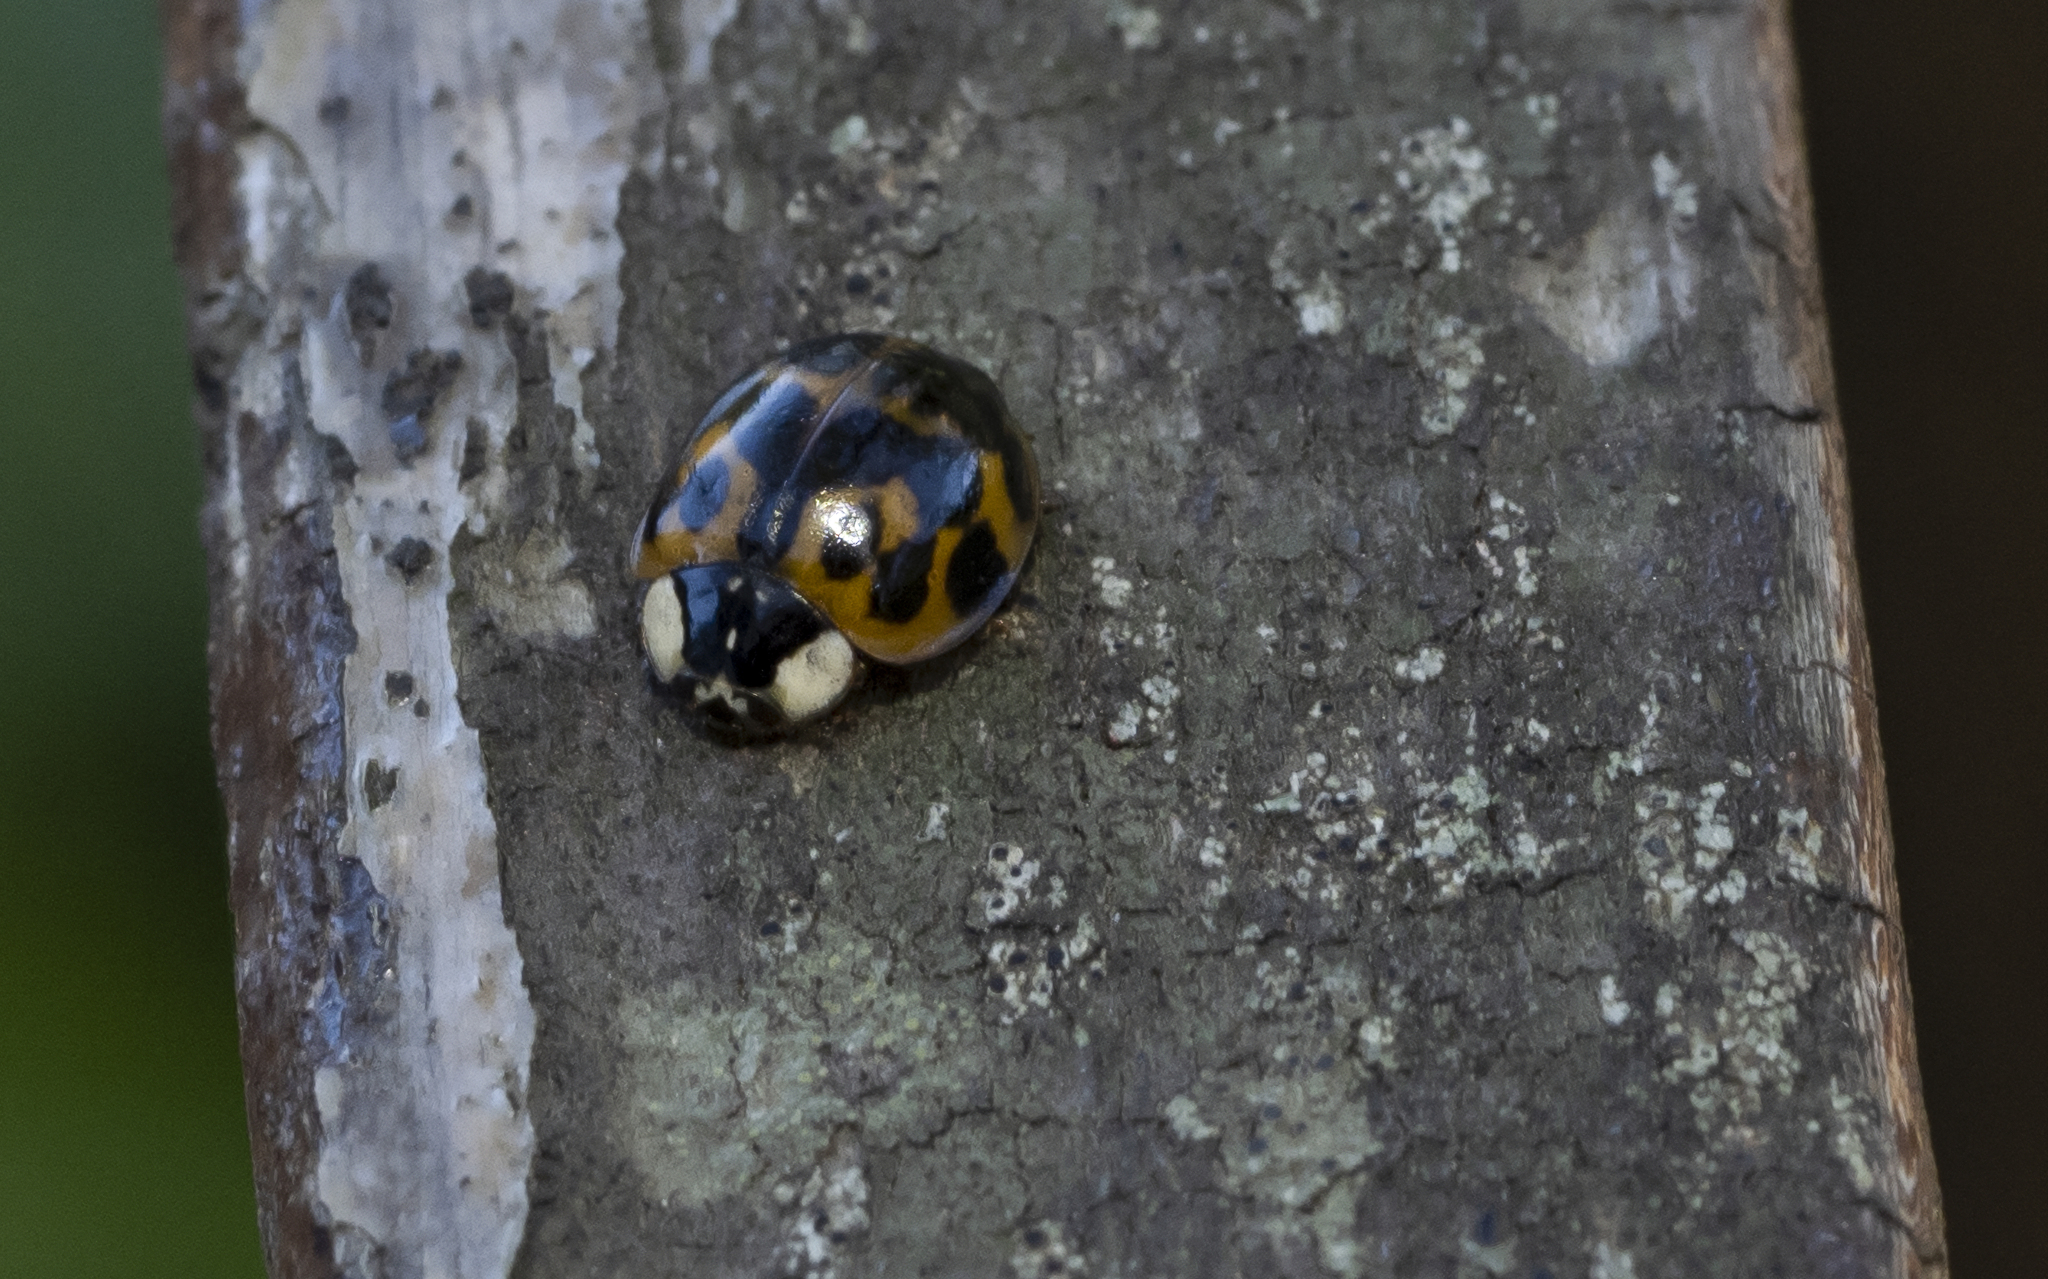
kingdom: Animalia
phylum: Arthropoda
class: Insecta
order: Coleoptera
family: Coccinellidae
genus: Harmonia
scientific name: Harmonia axyridis
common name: Harlequin ladybird
